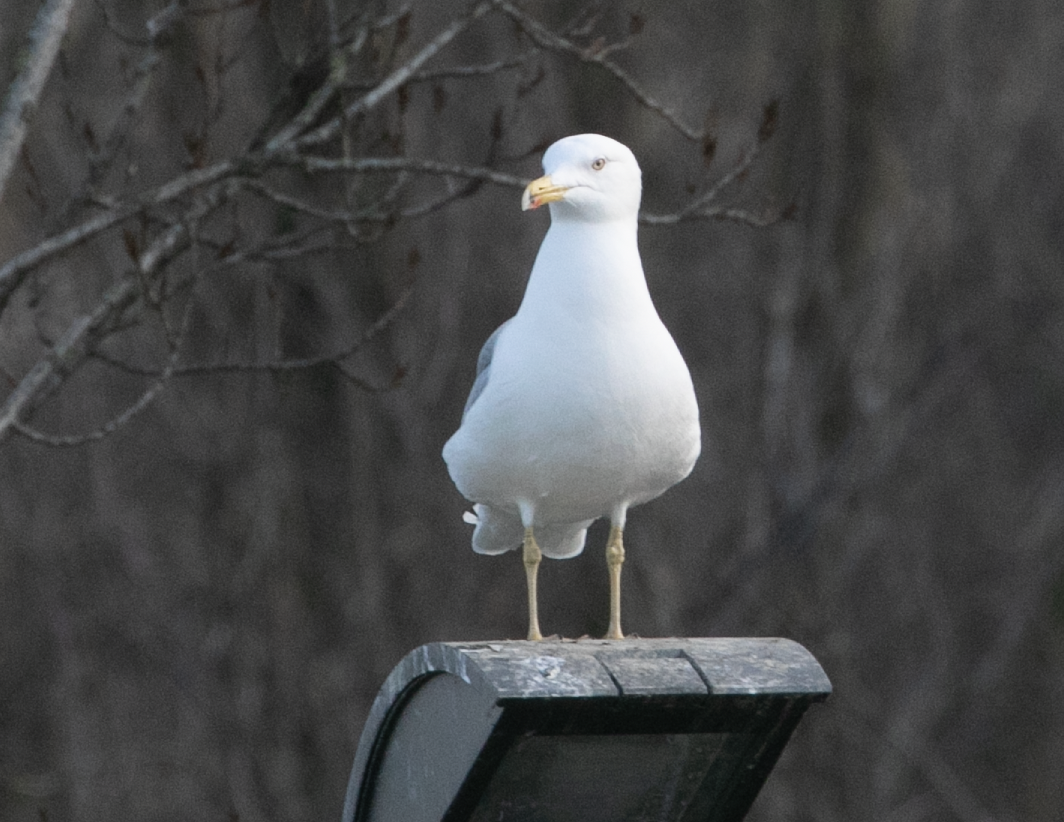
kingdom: Animalia
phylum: Chordata
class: Aves
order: Charadriiformes
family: Laridae
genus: Larus
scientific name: Larus michahellis
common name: Yellow-legged gull
